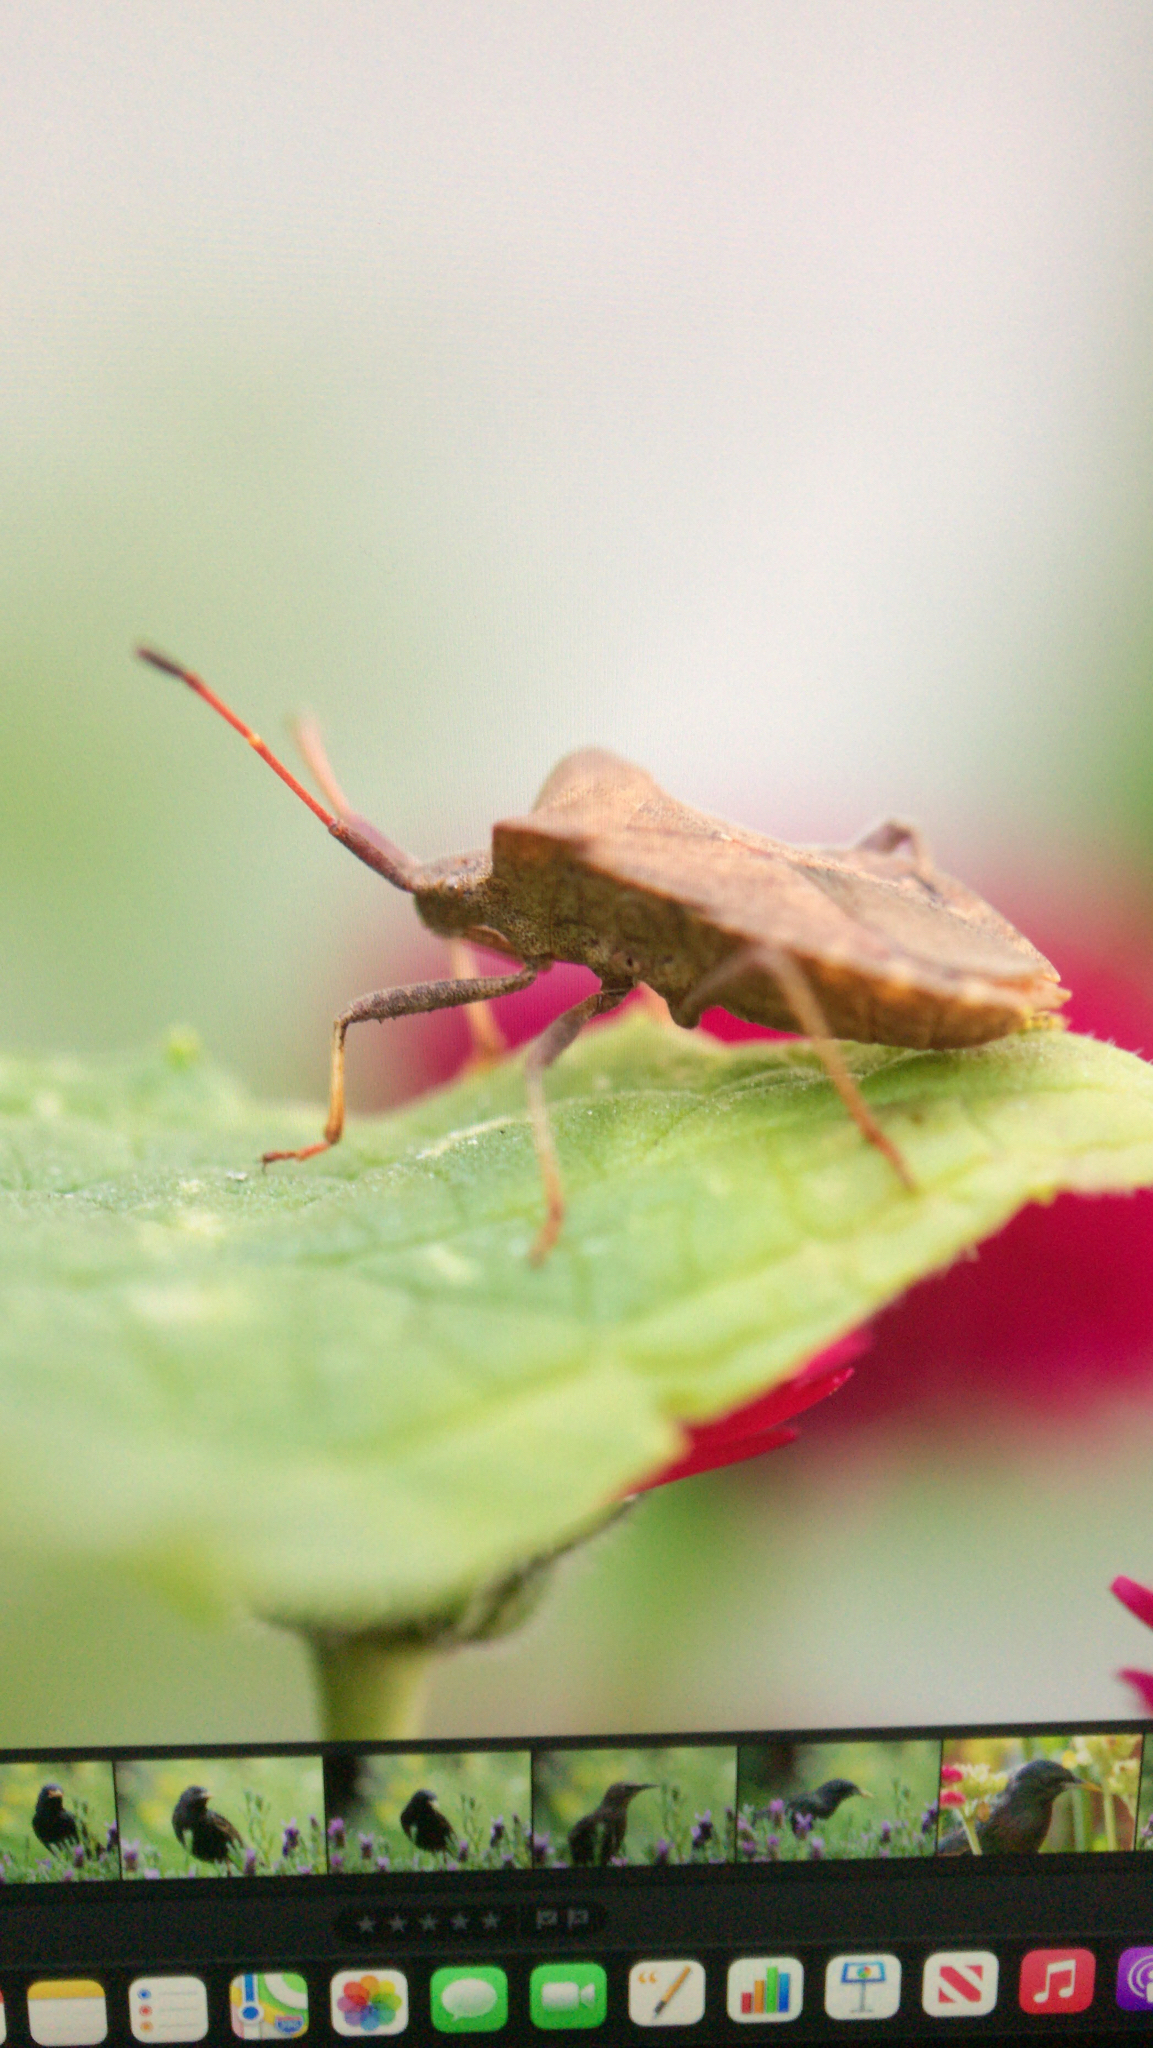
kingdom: Animalia
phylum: Arthropoda
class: Insecta
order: Hemiptera
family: Coreidae
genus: Coreus
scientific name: Coreus marginatus
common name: Dock bug
